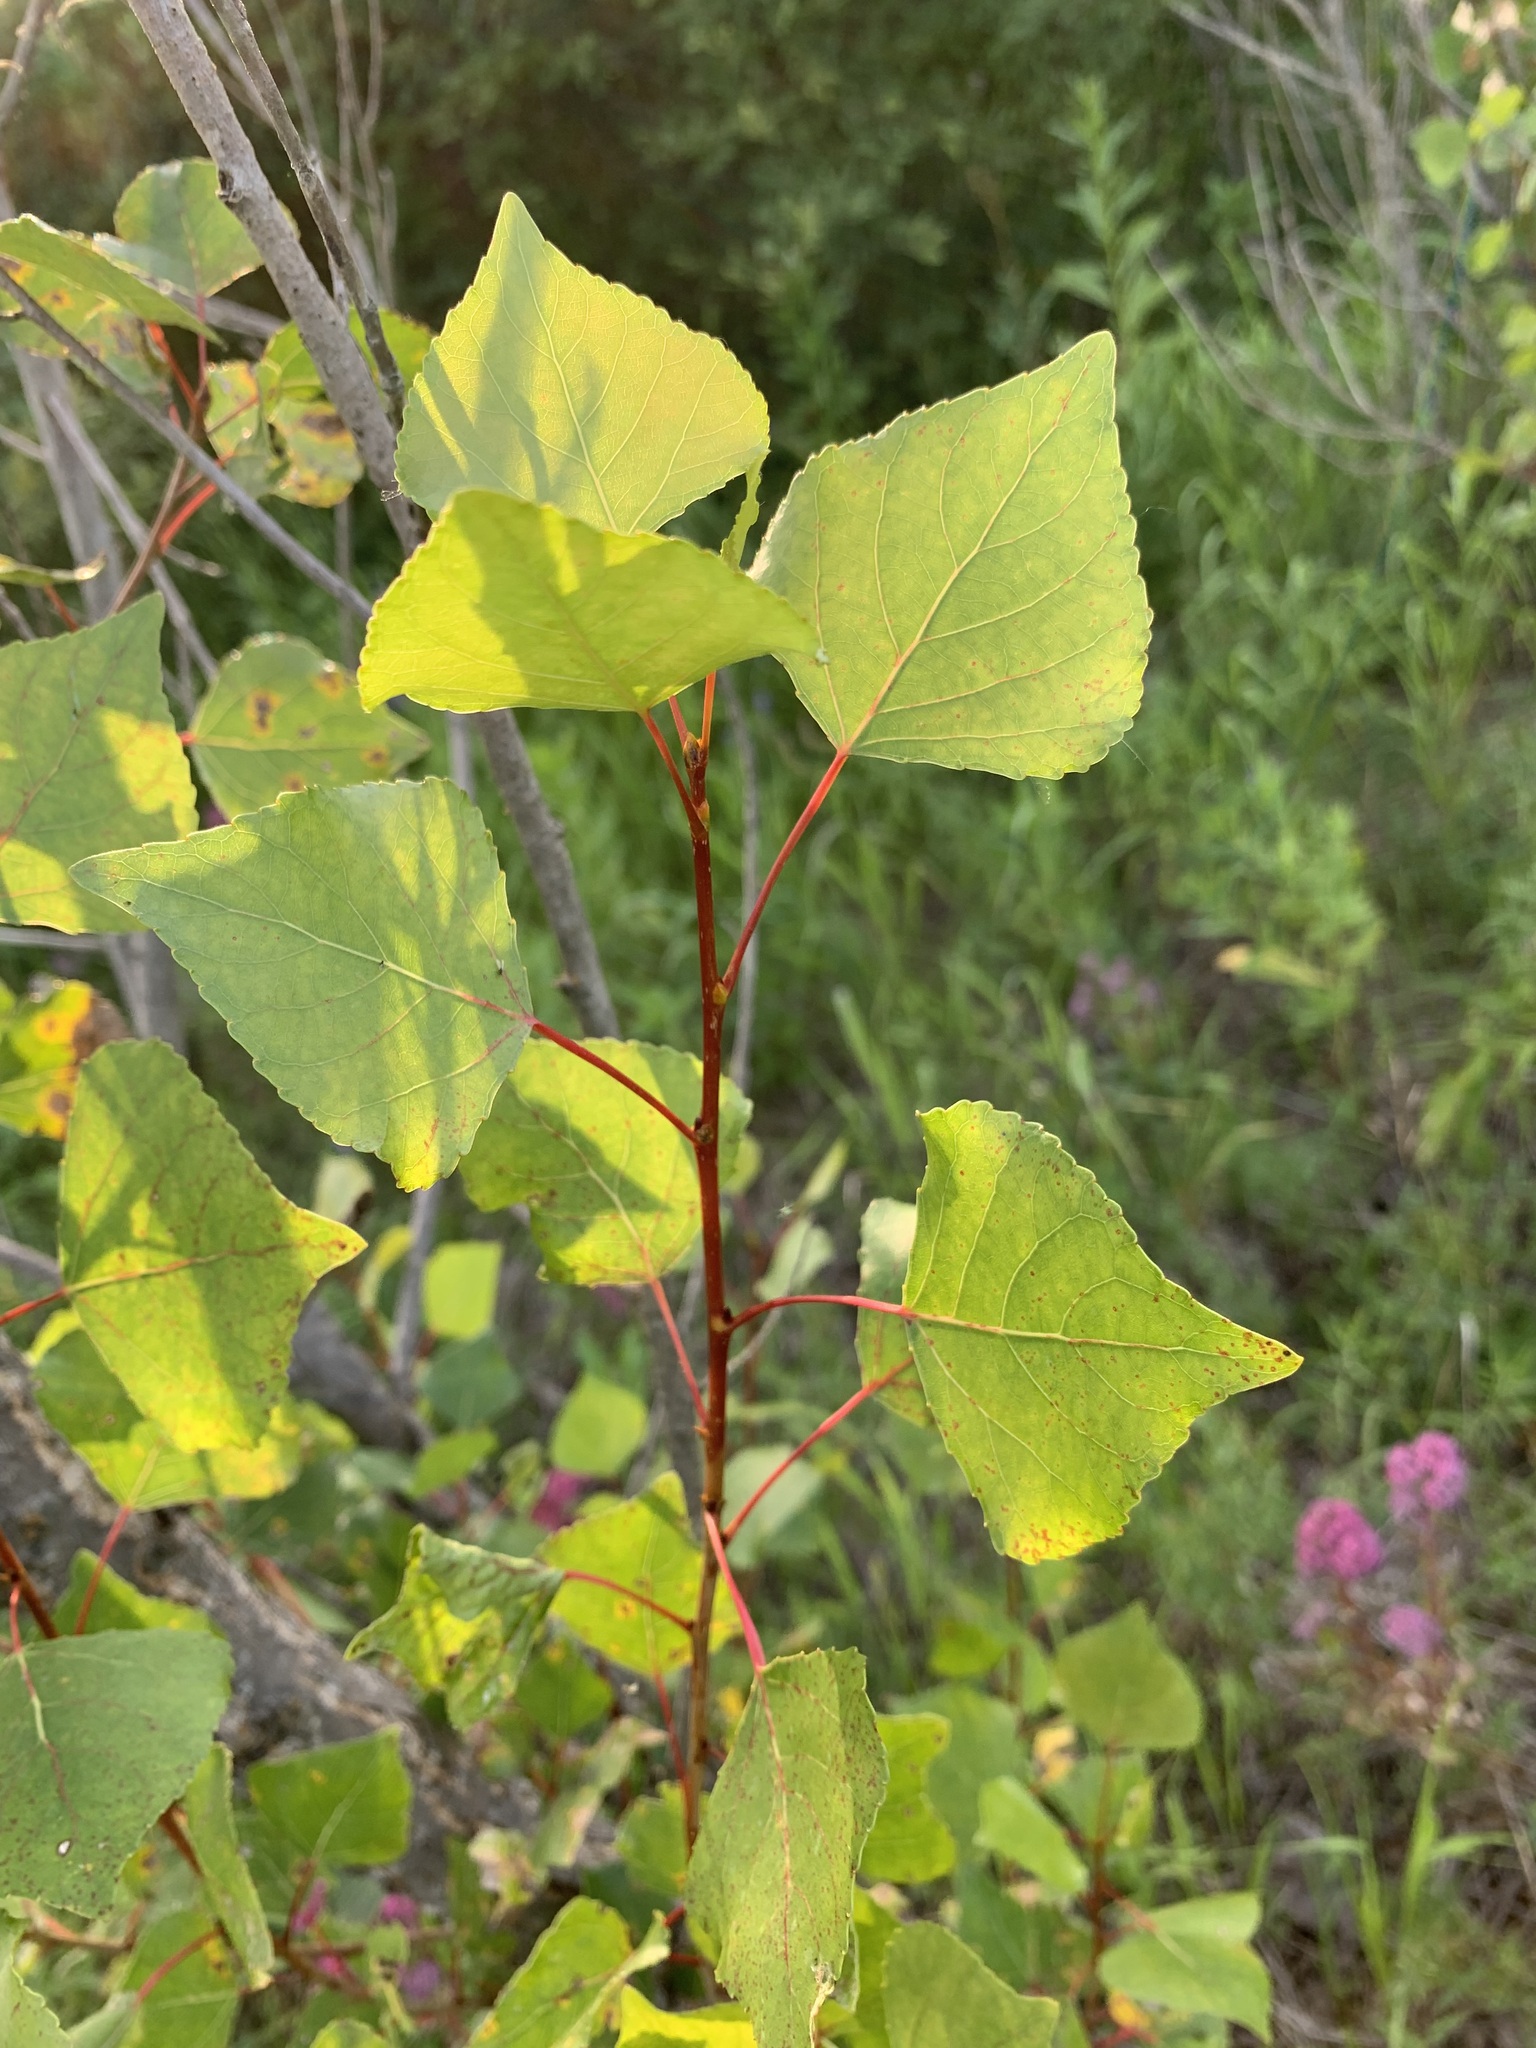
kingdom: Plantae
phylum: Tracheophyta
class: Magnoliopsida
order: Malpighiales
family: Salicaceae
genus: Populus
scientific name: Populus nigra
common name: Black poplar
